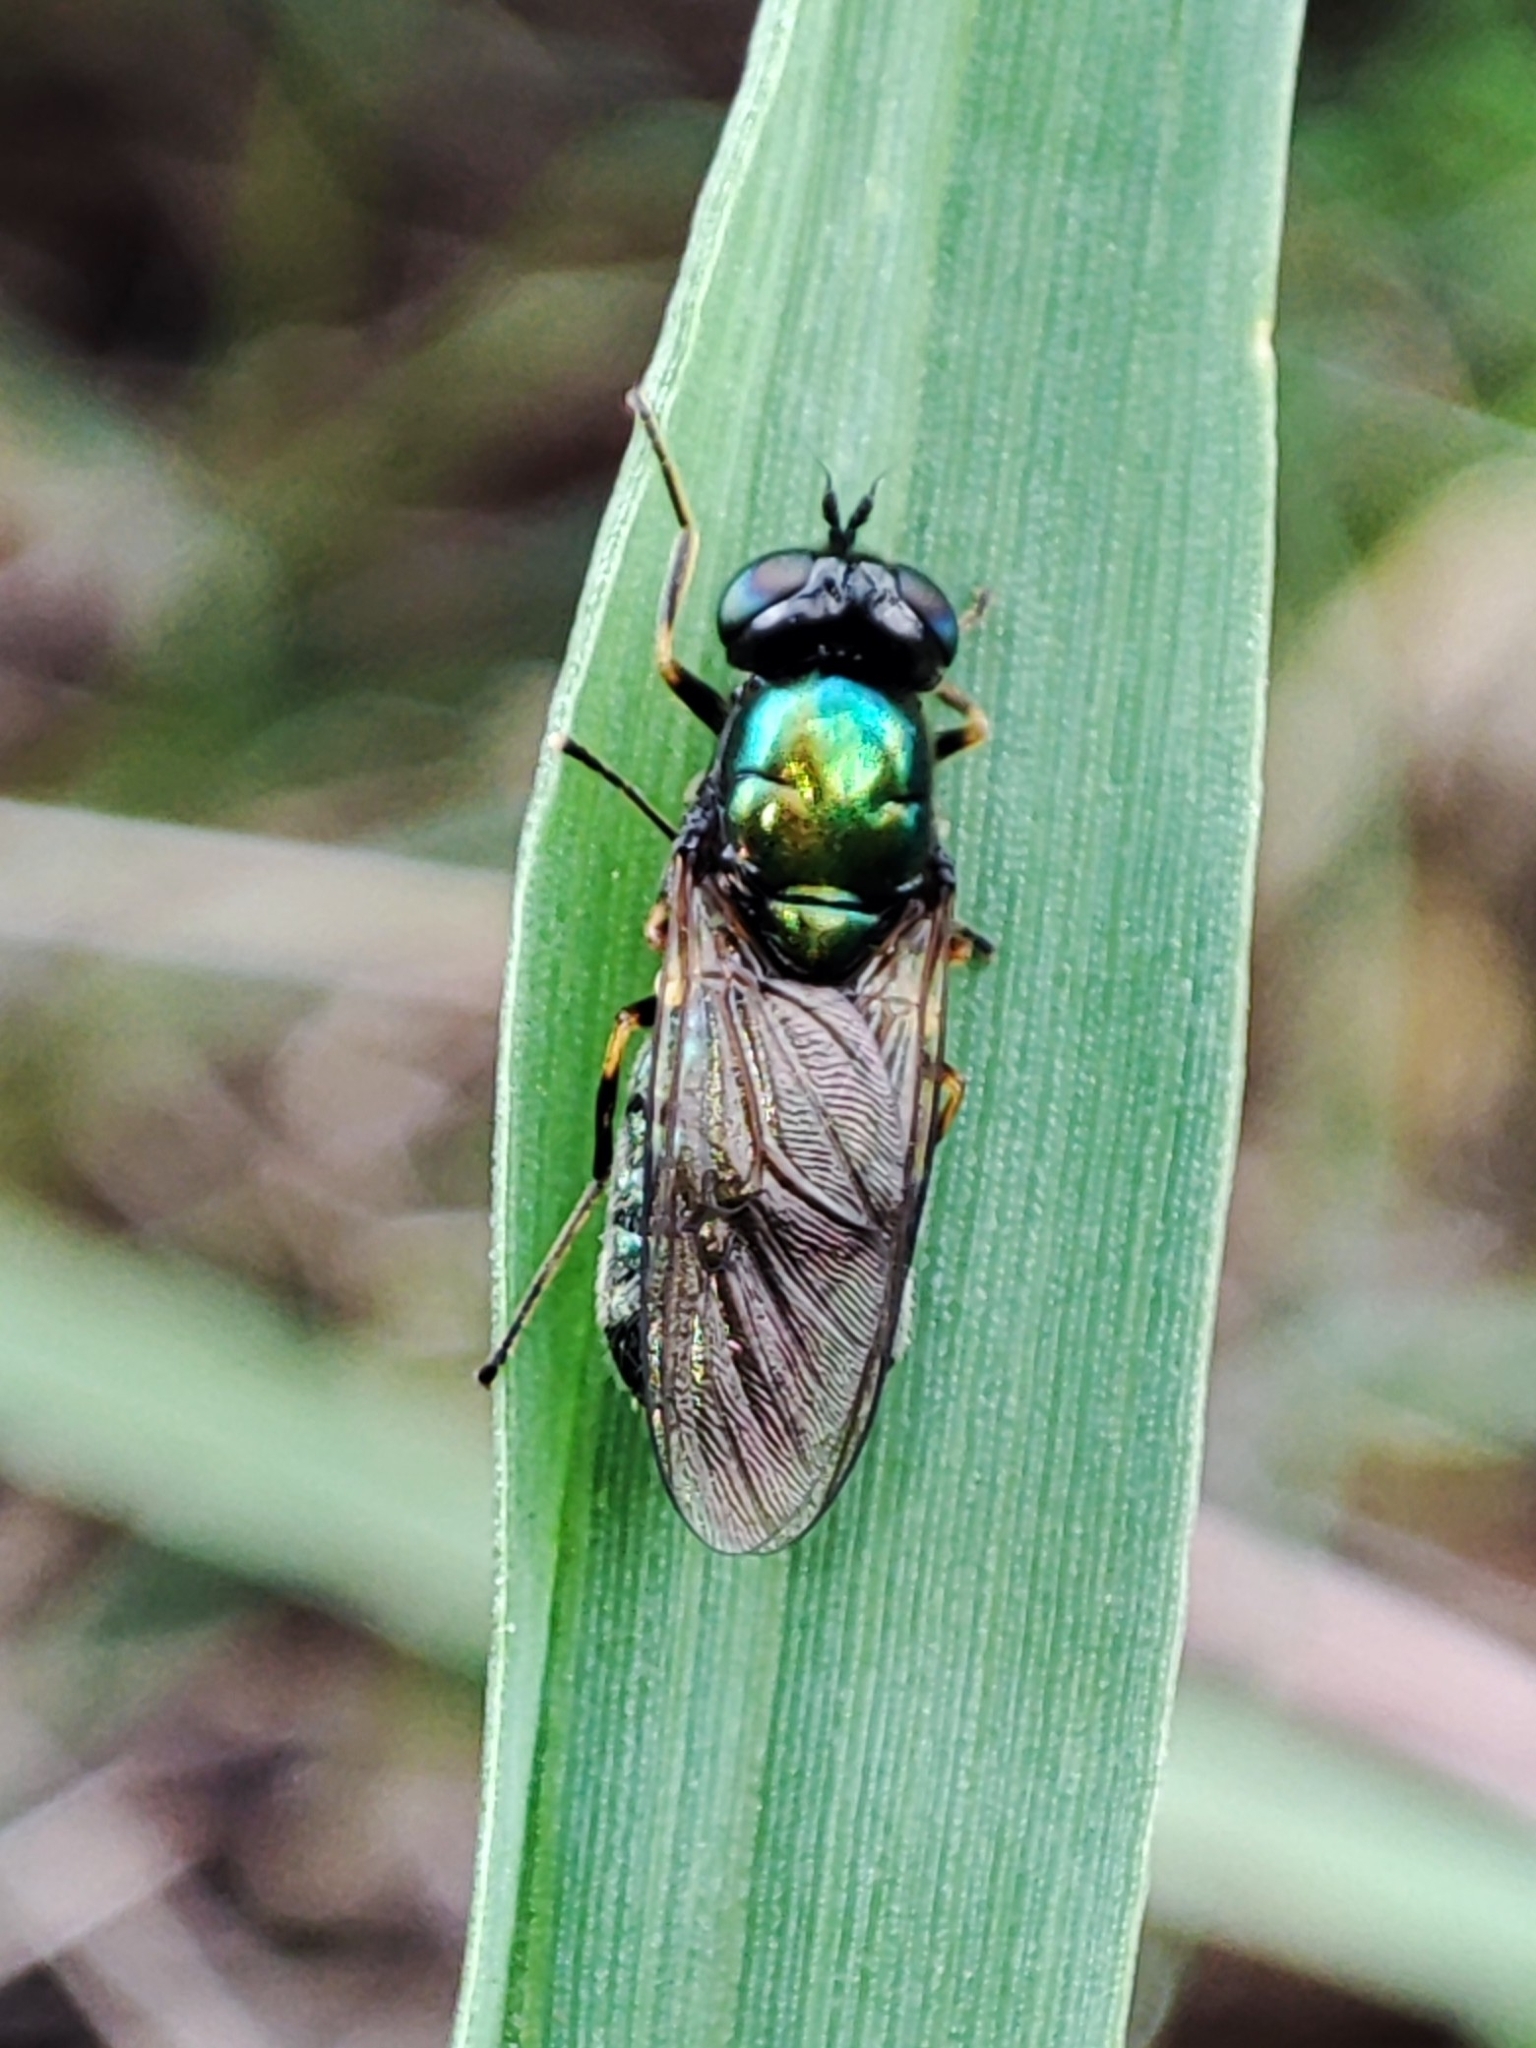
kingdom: Animalia
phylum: Arthropoda
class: Insecta
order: Diptera
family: Stratiomyidae
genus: Chloromyia
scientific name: Chloromyia formosa
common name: Soldier fly
